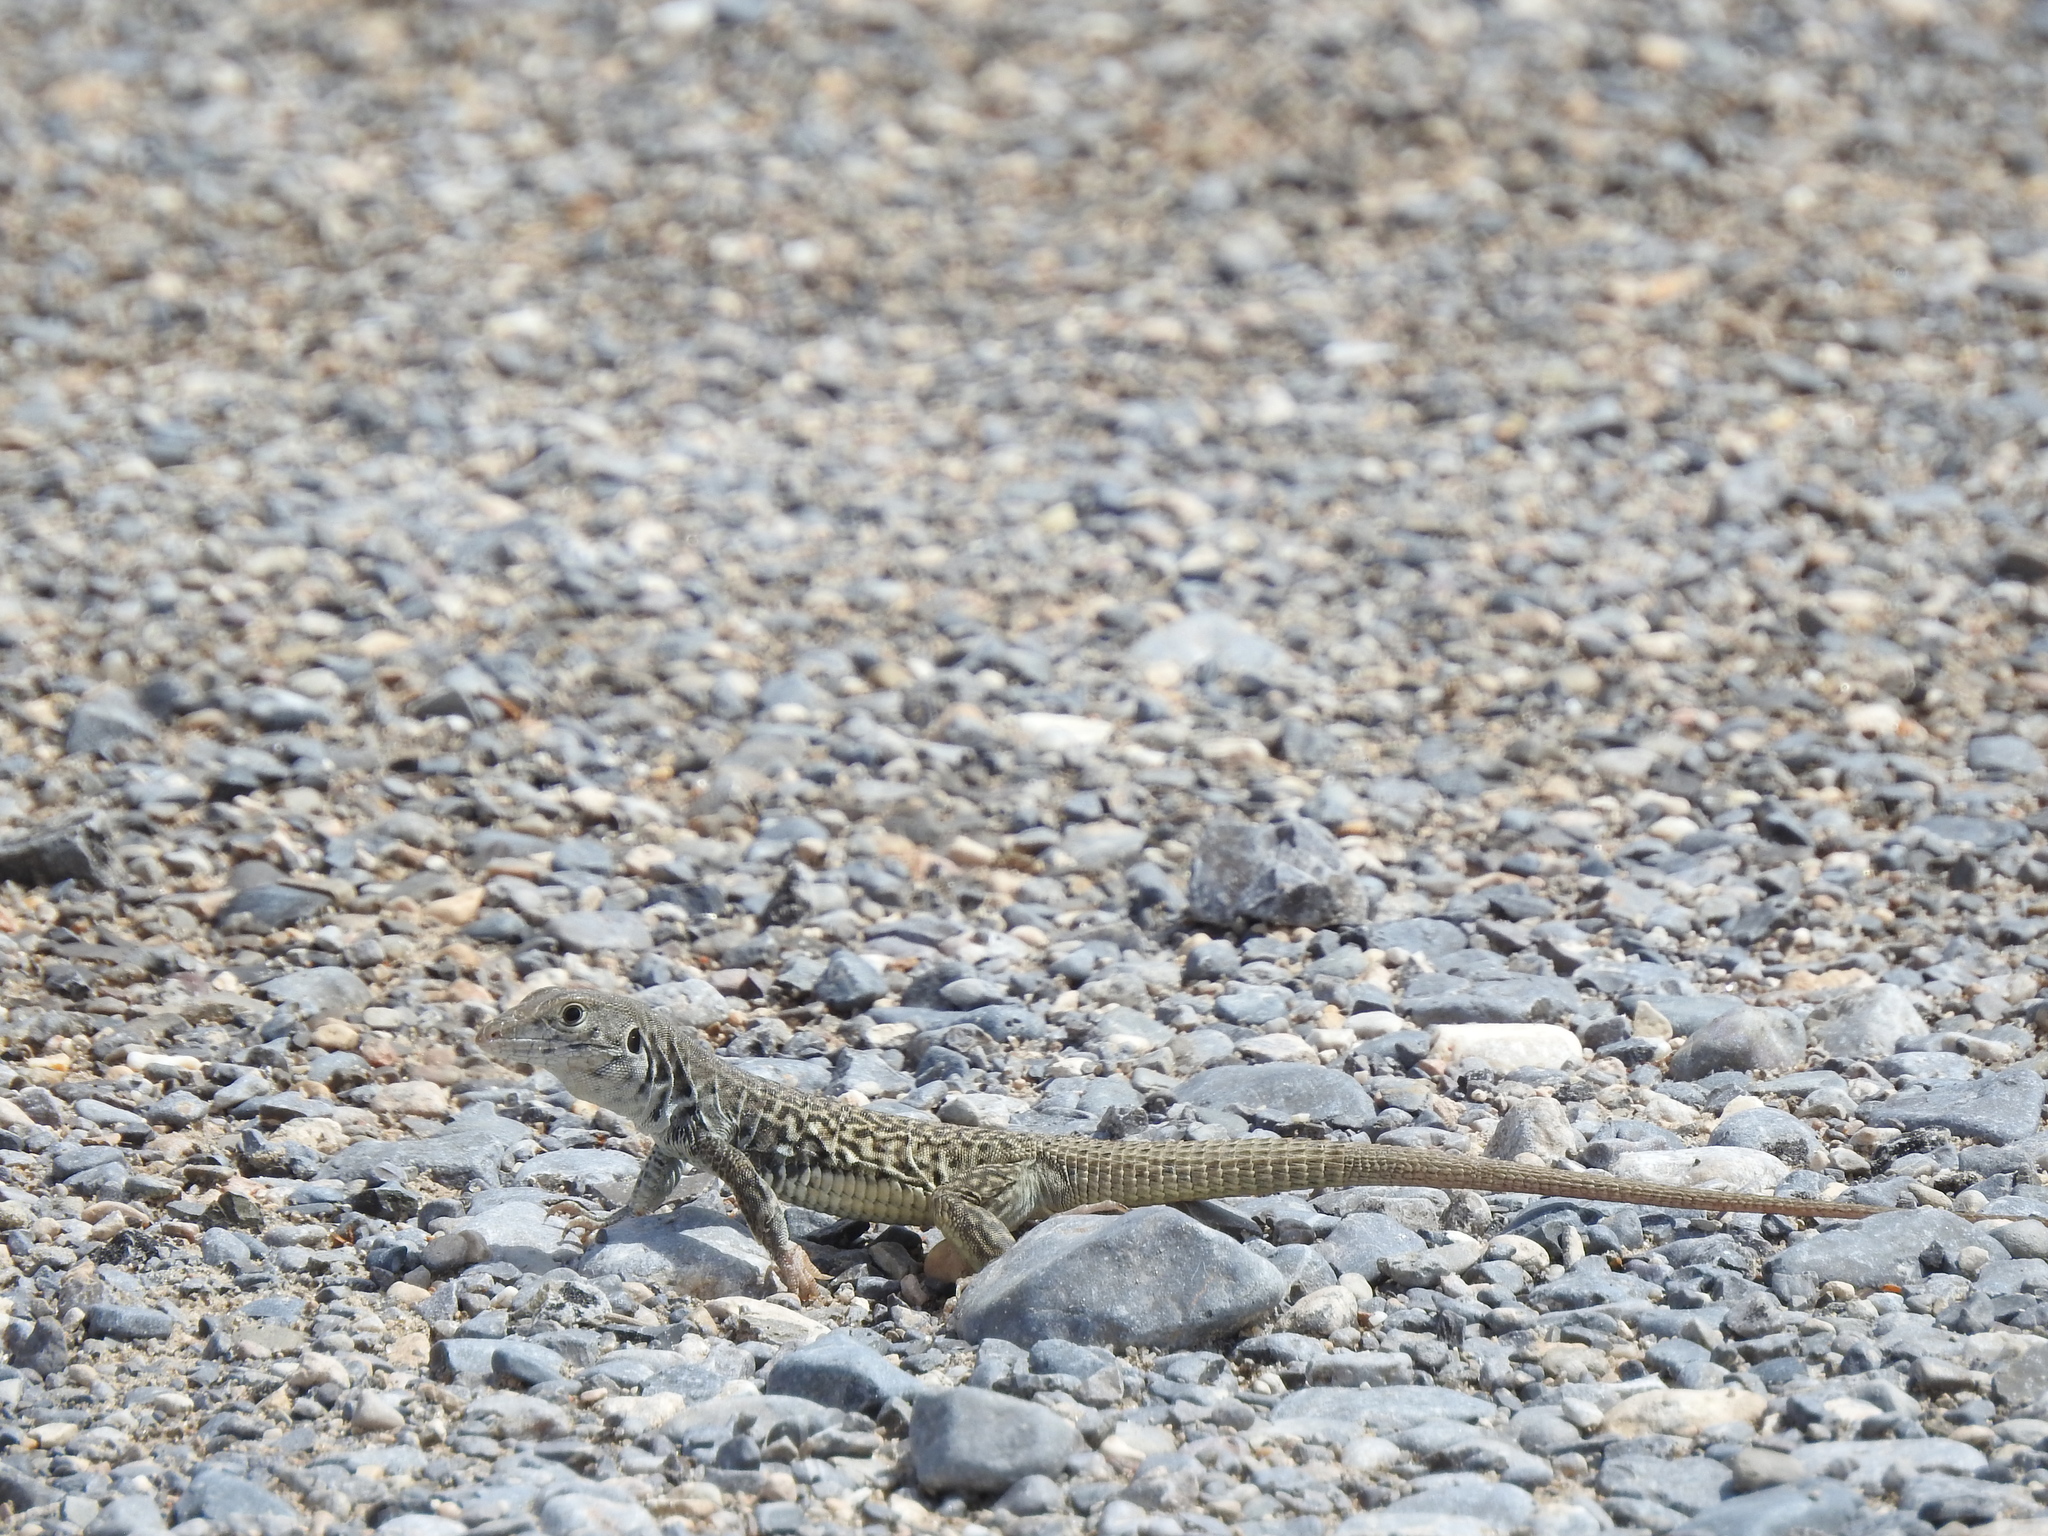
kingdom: Animalia
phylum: Chordata
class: Squamata
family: Teiidae
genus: Aspidoscelis
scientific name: Aspidoscelis marmoratus
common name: Eastern marbled whiptail [reticuloriens]
